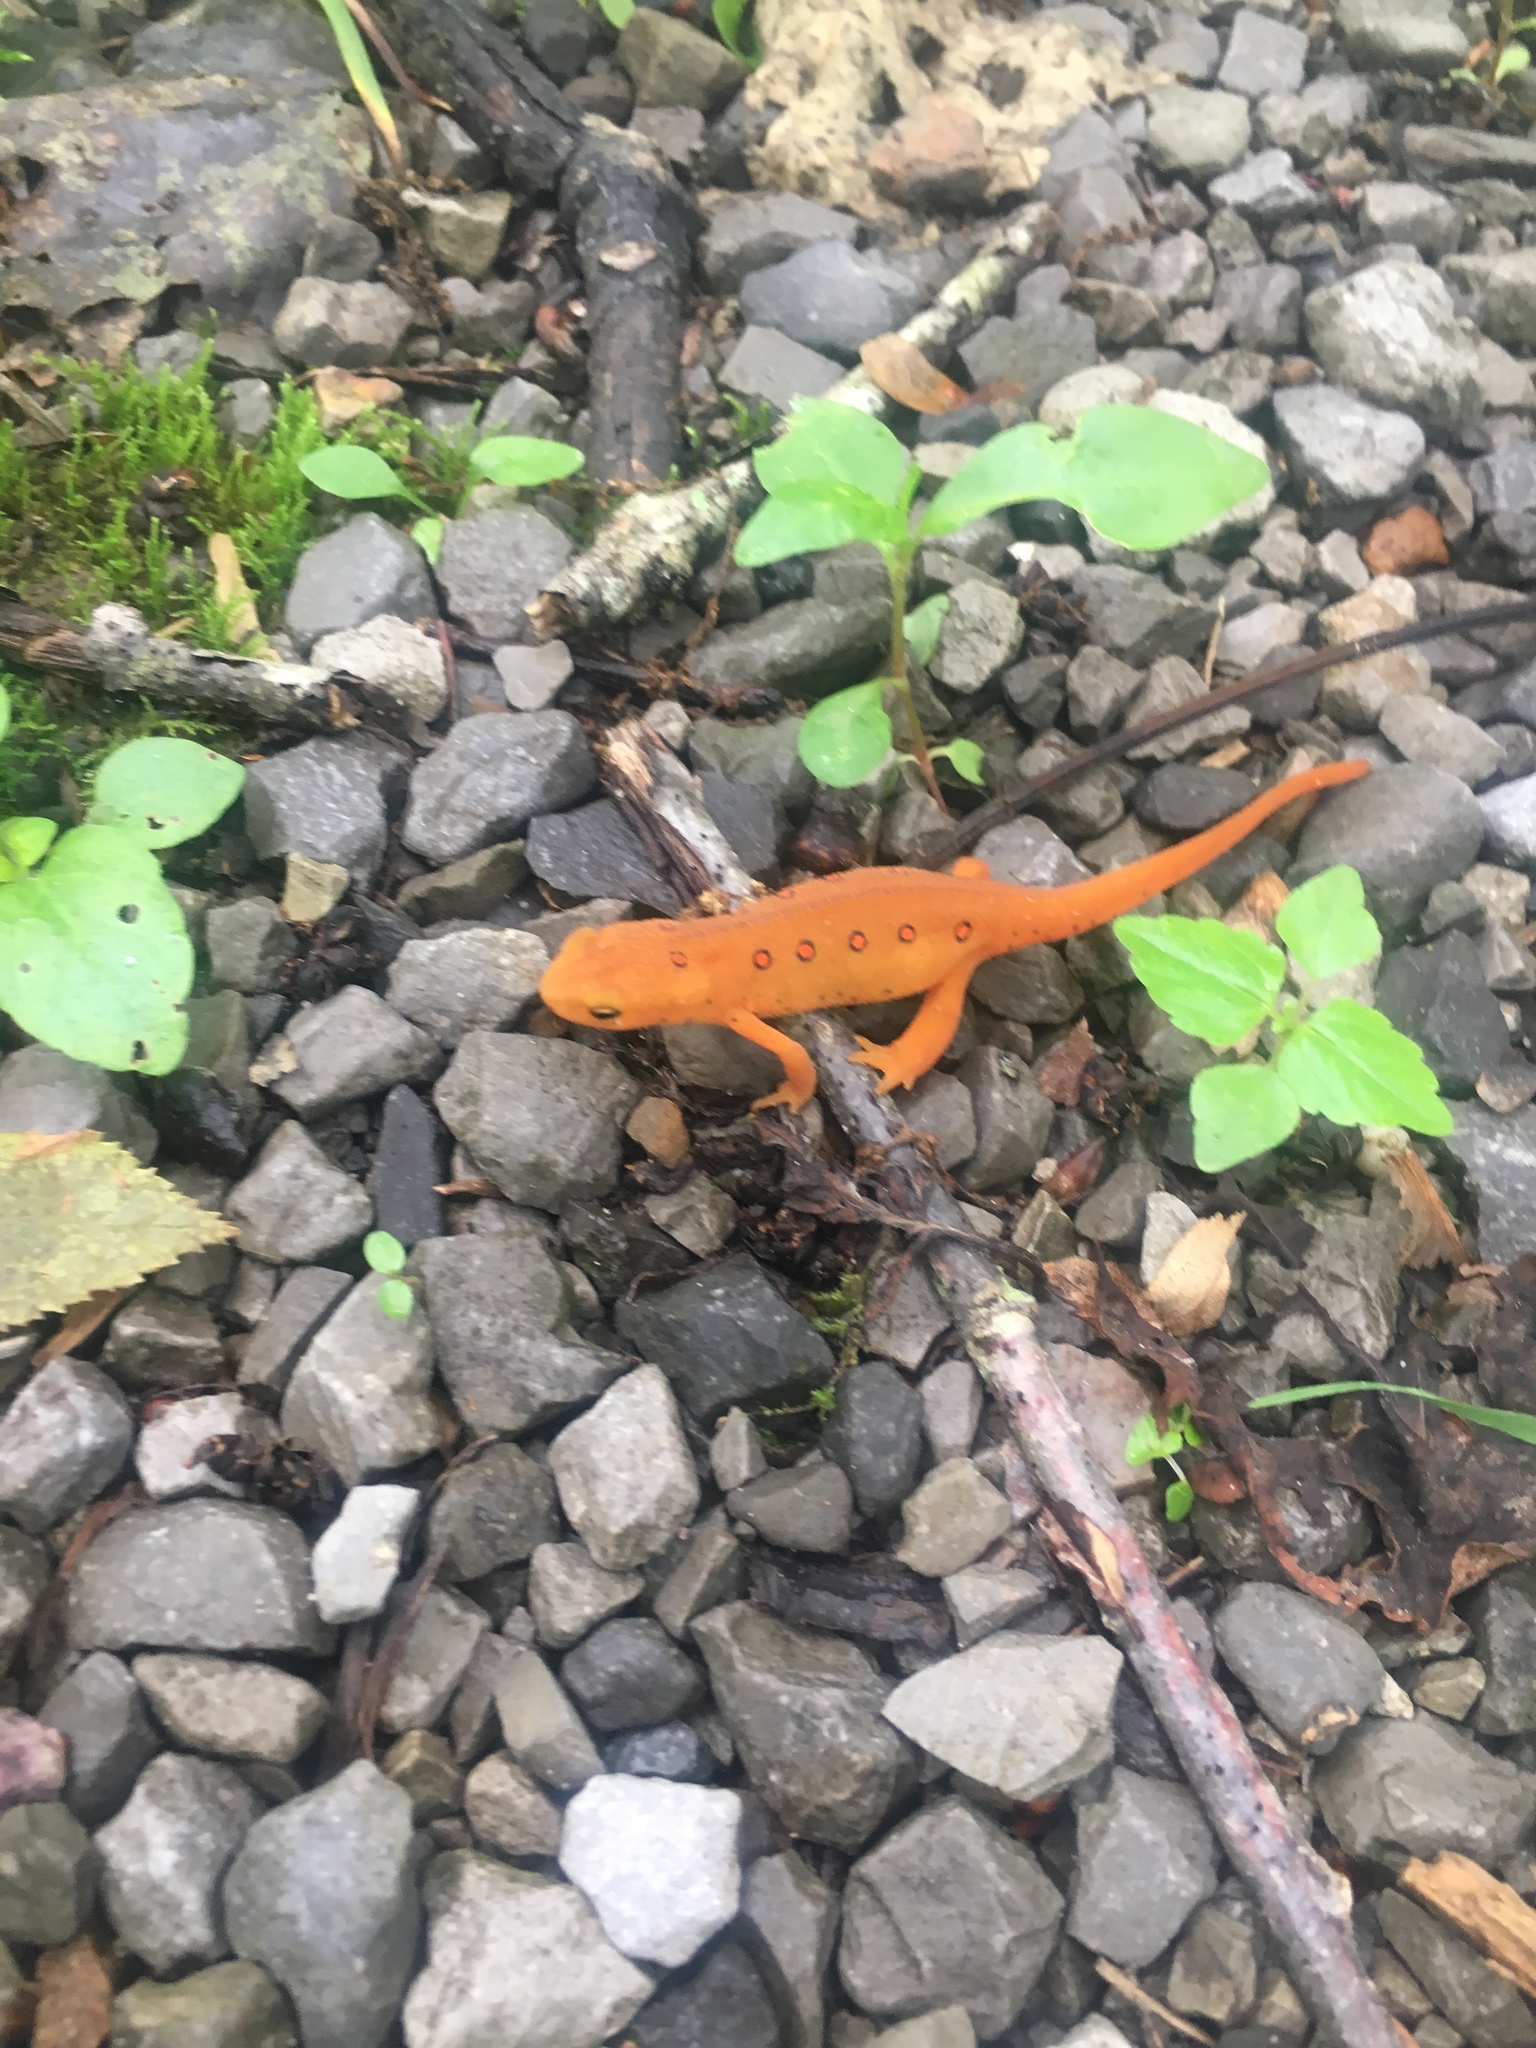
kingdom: Animalia
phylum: Chordata
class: Amphibia
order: Caudata
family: Salamandridae
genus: Notophthalmus
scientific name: Notophthalmus viridescens
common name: Eastern newt
